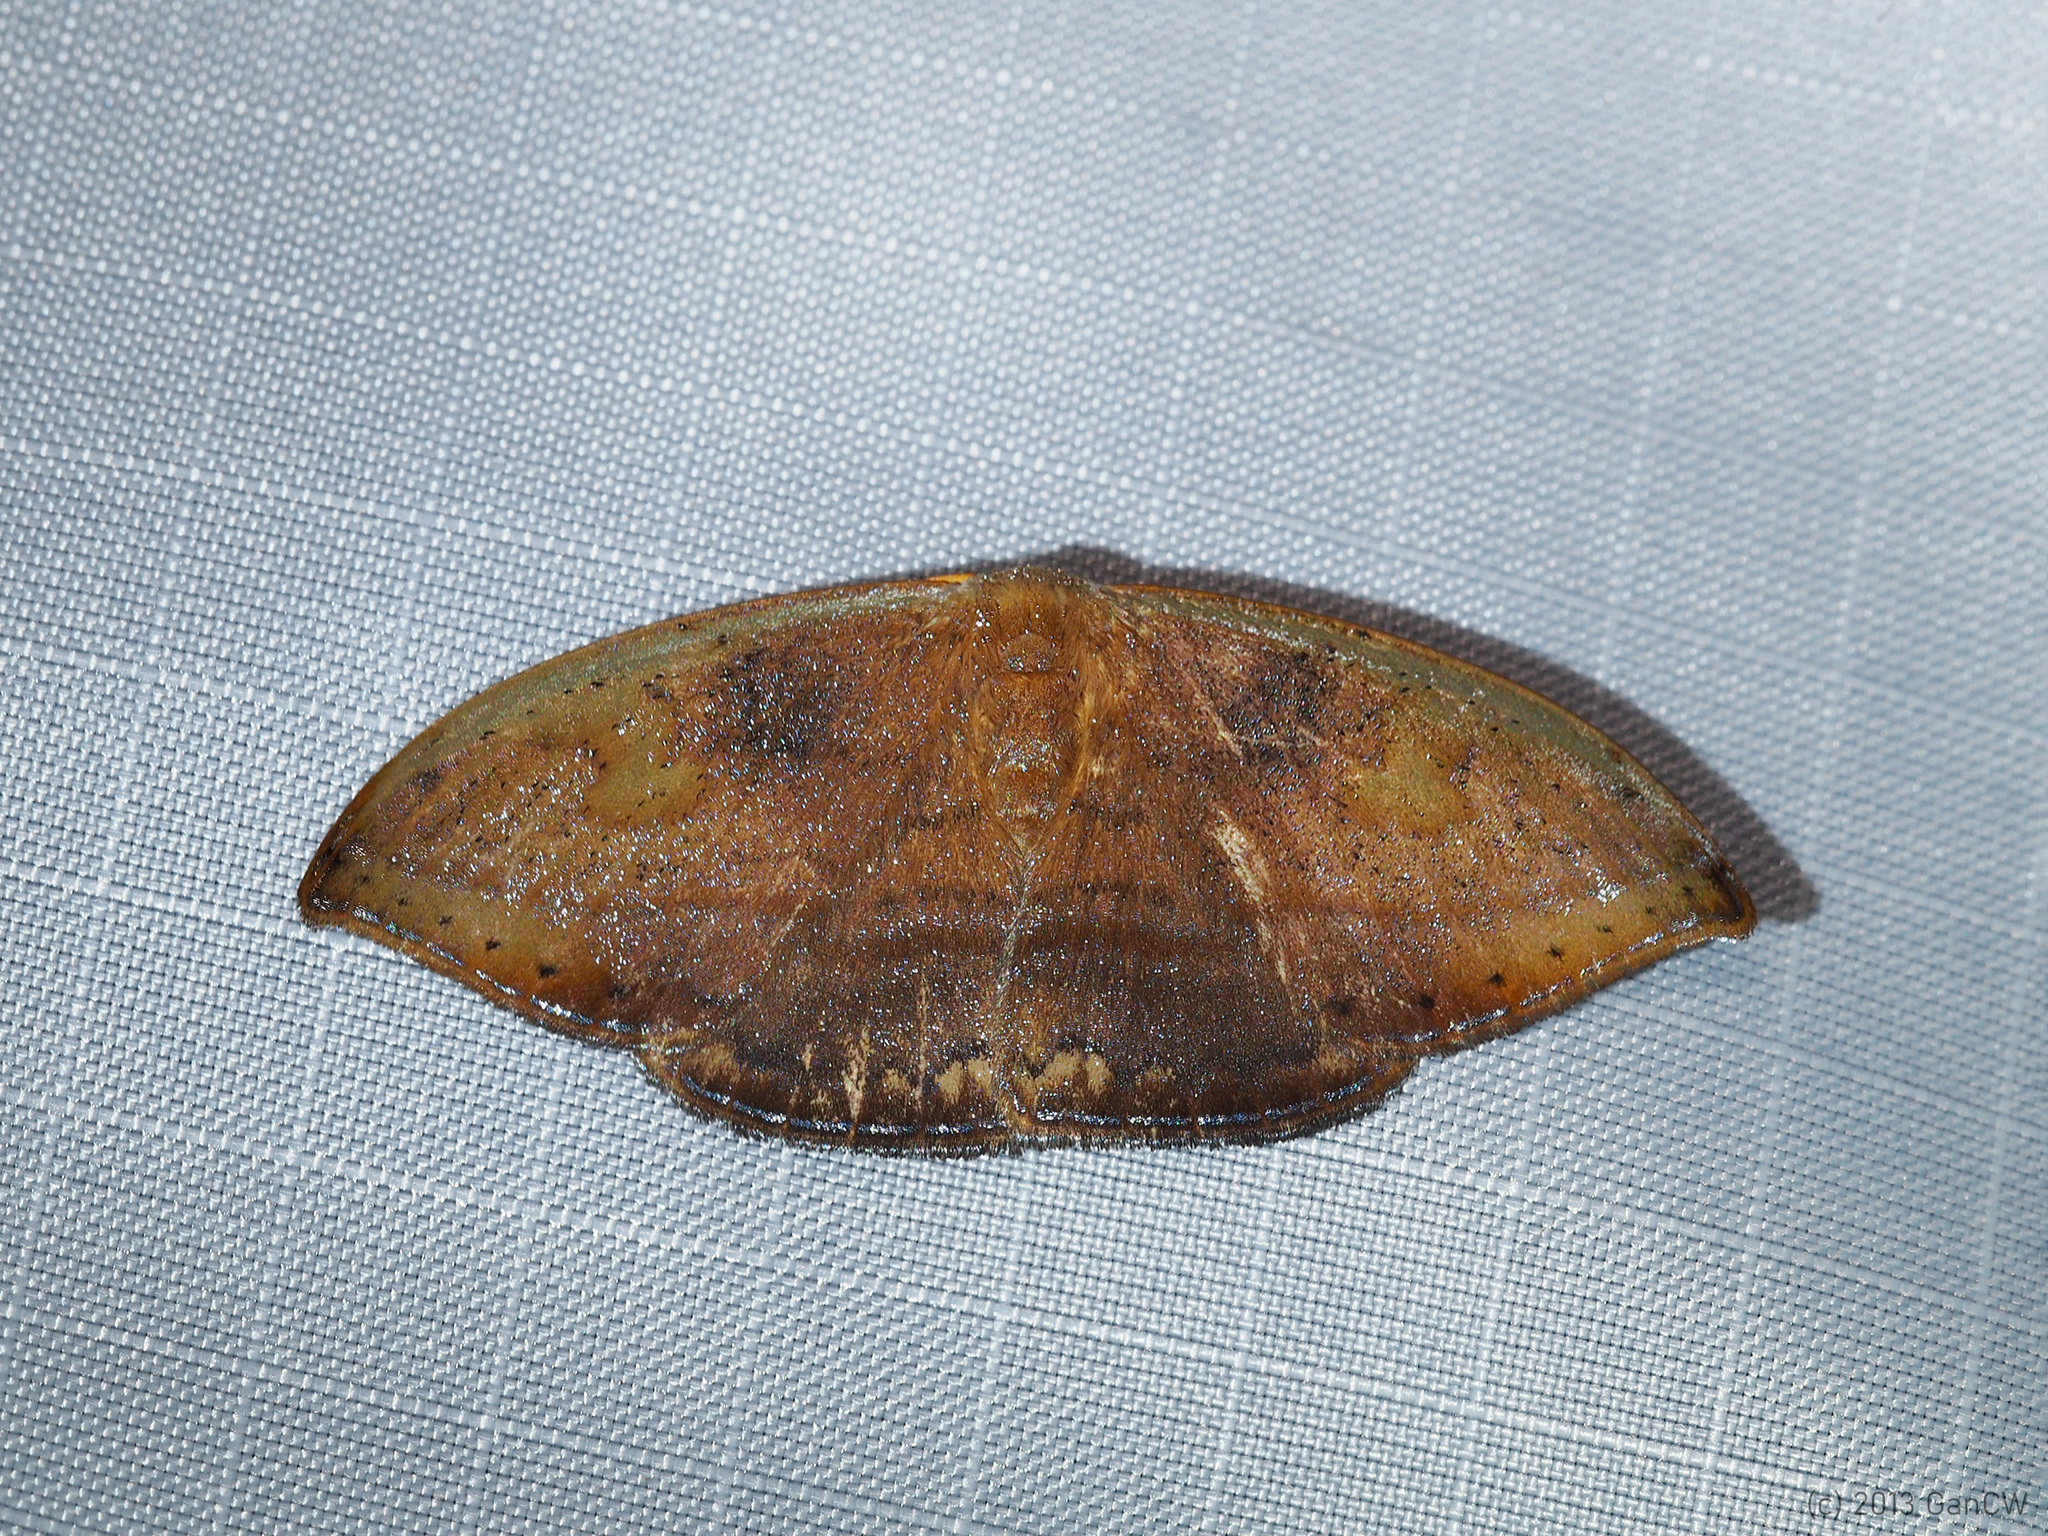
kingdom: Animalia
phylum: Arthropoda
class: Insecta
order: Lepidoptera
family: Drepanidae
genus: Callidrepana
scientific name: Callidrepana pulcherrima
